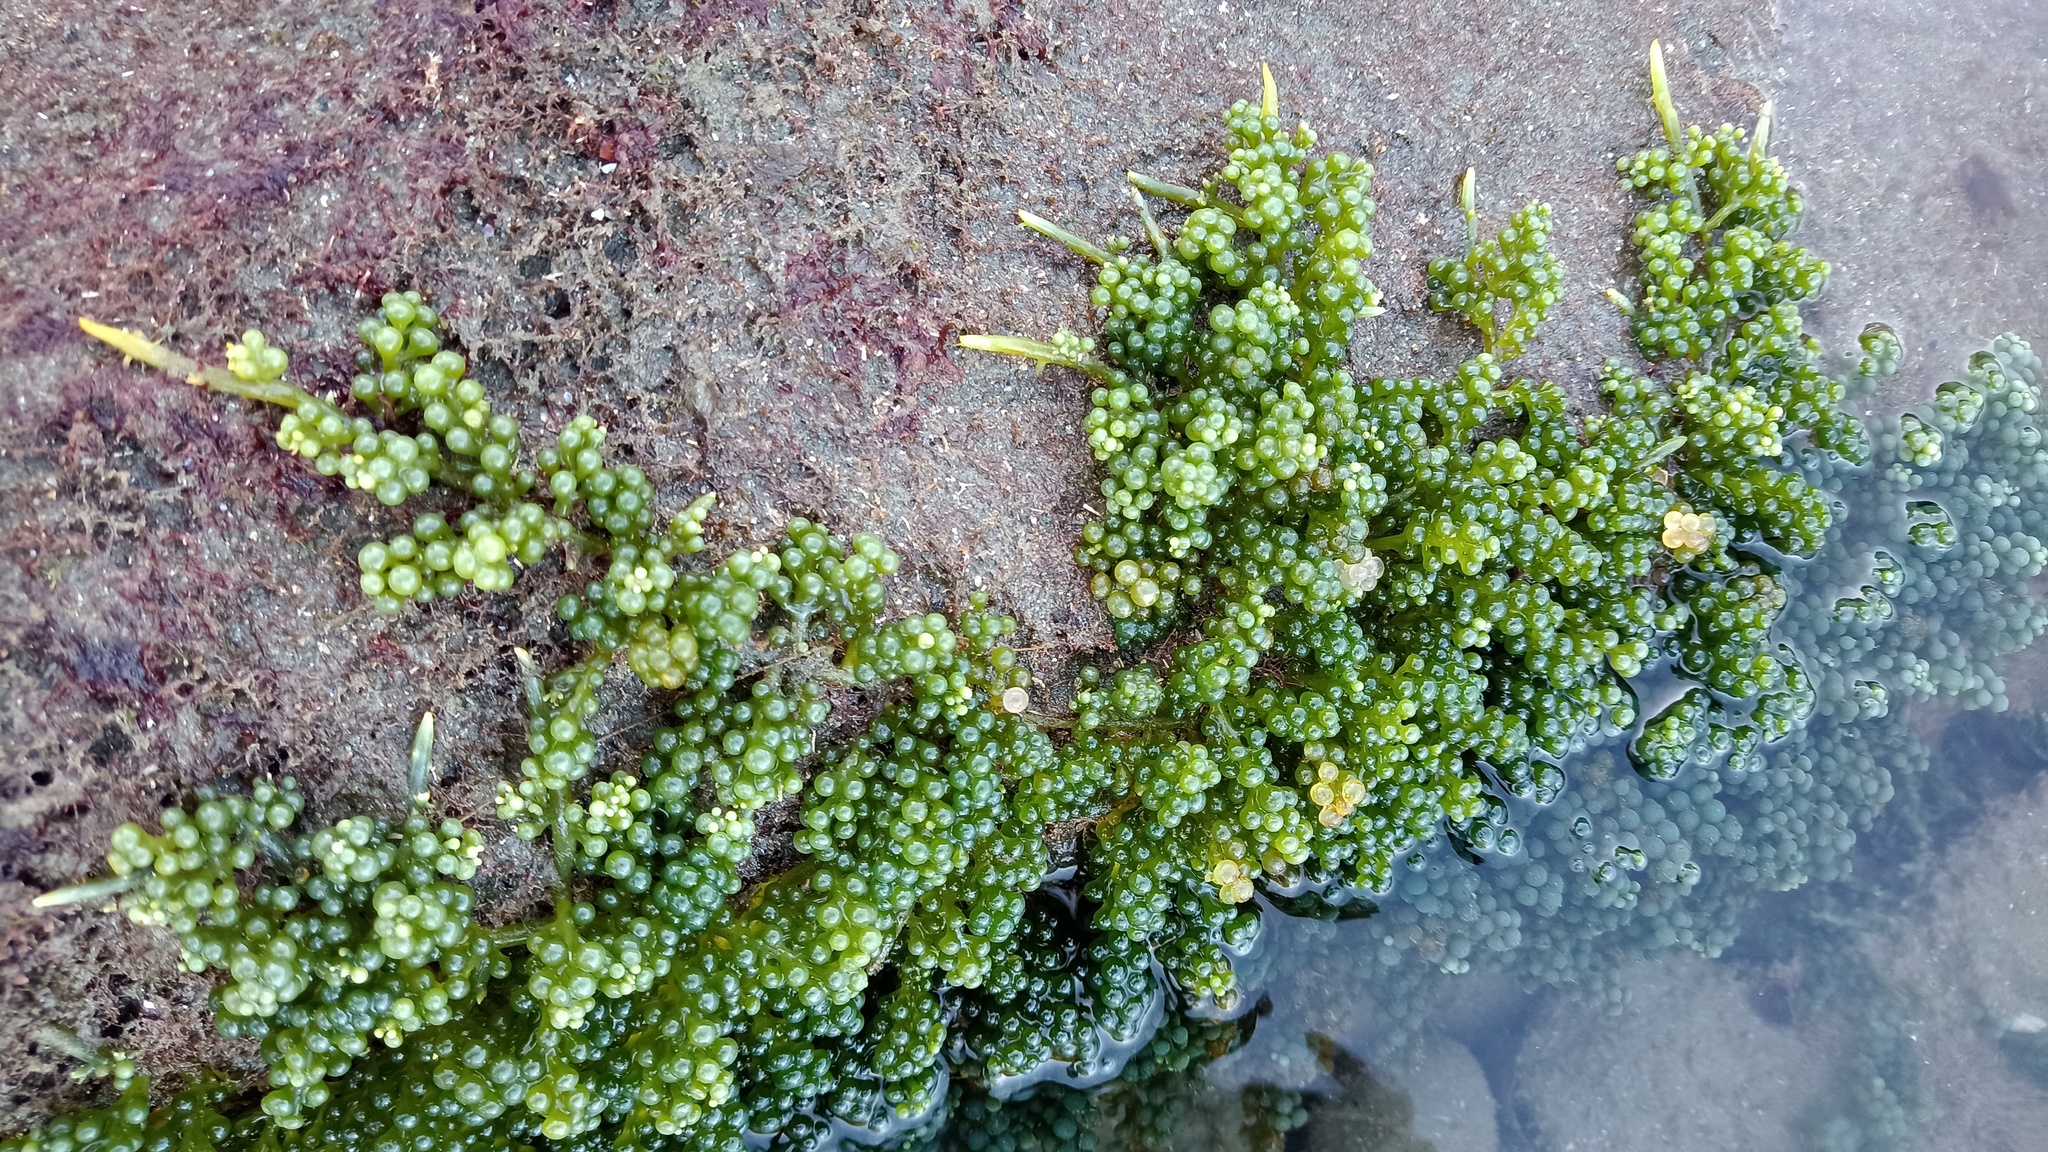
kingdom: Plantae
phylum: Chlorophyta
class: Ulvophyceae
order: Bryopsidales
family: Caulerpaceae
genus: Caulerpa
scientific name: Caulerpa racemosa
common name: Green grape algae
